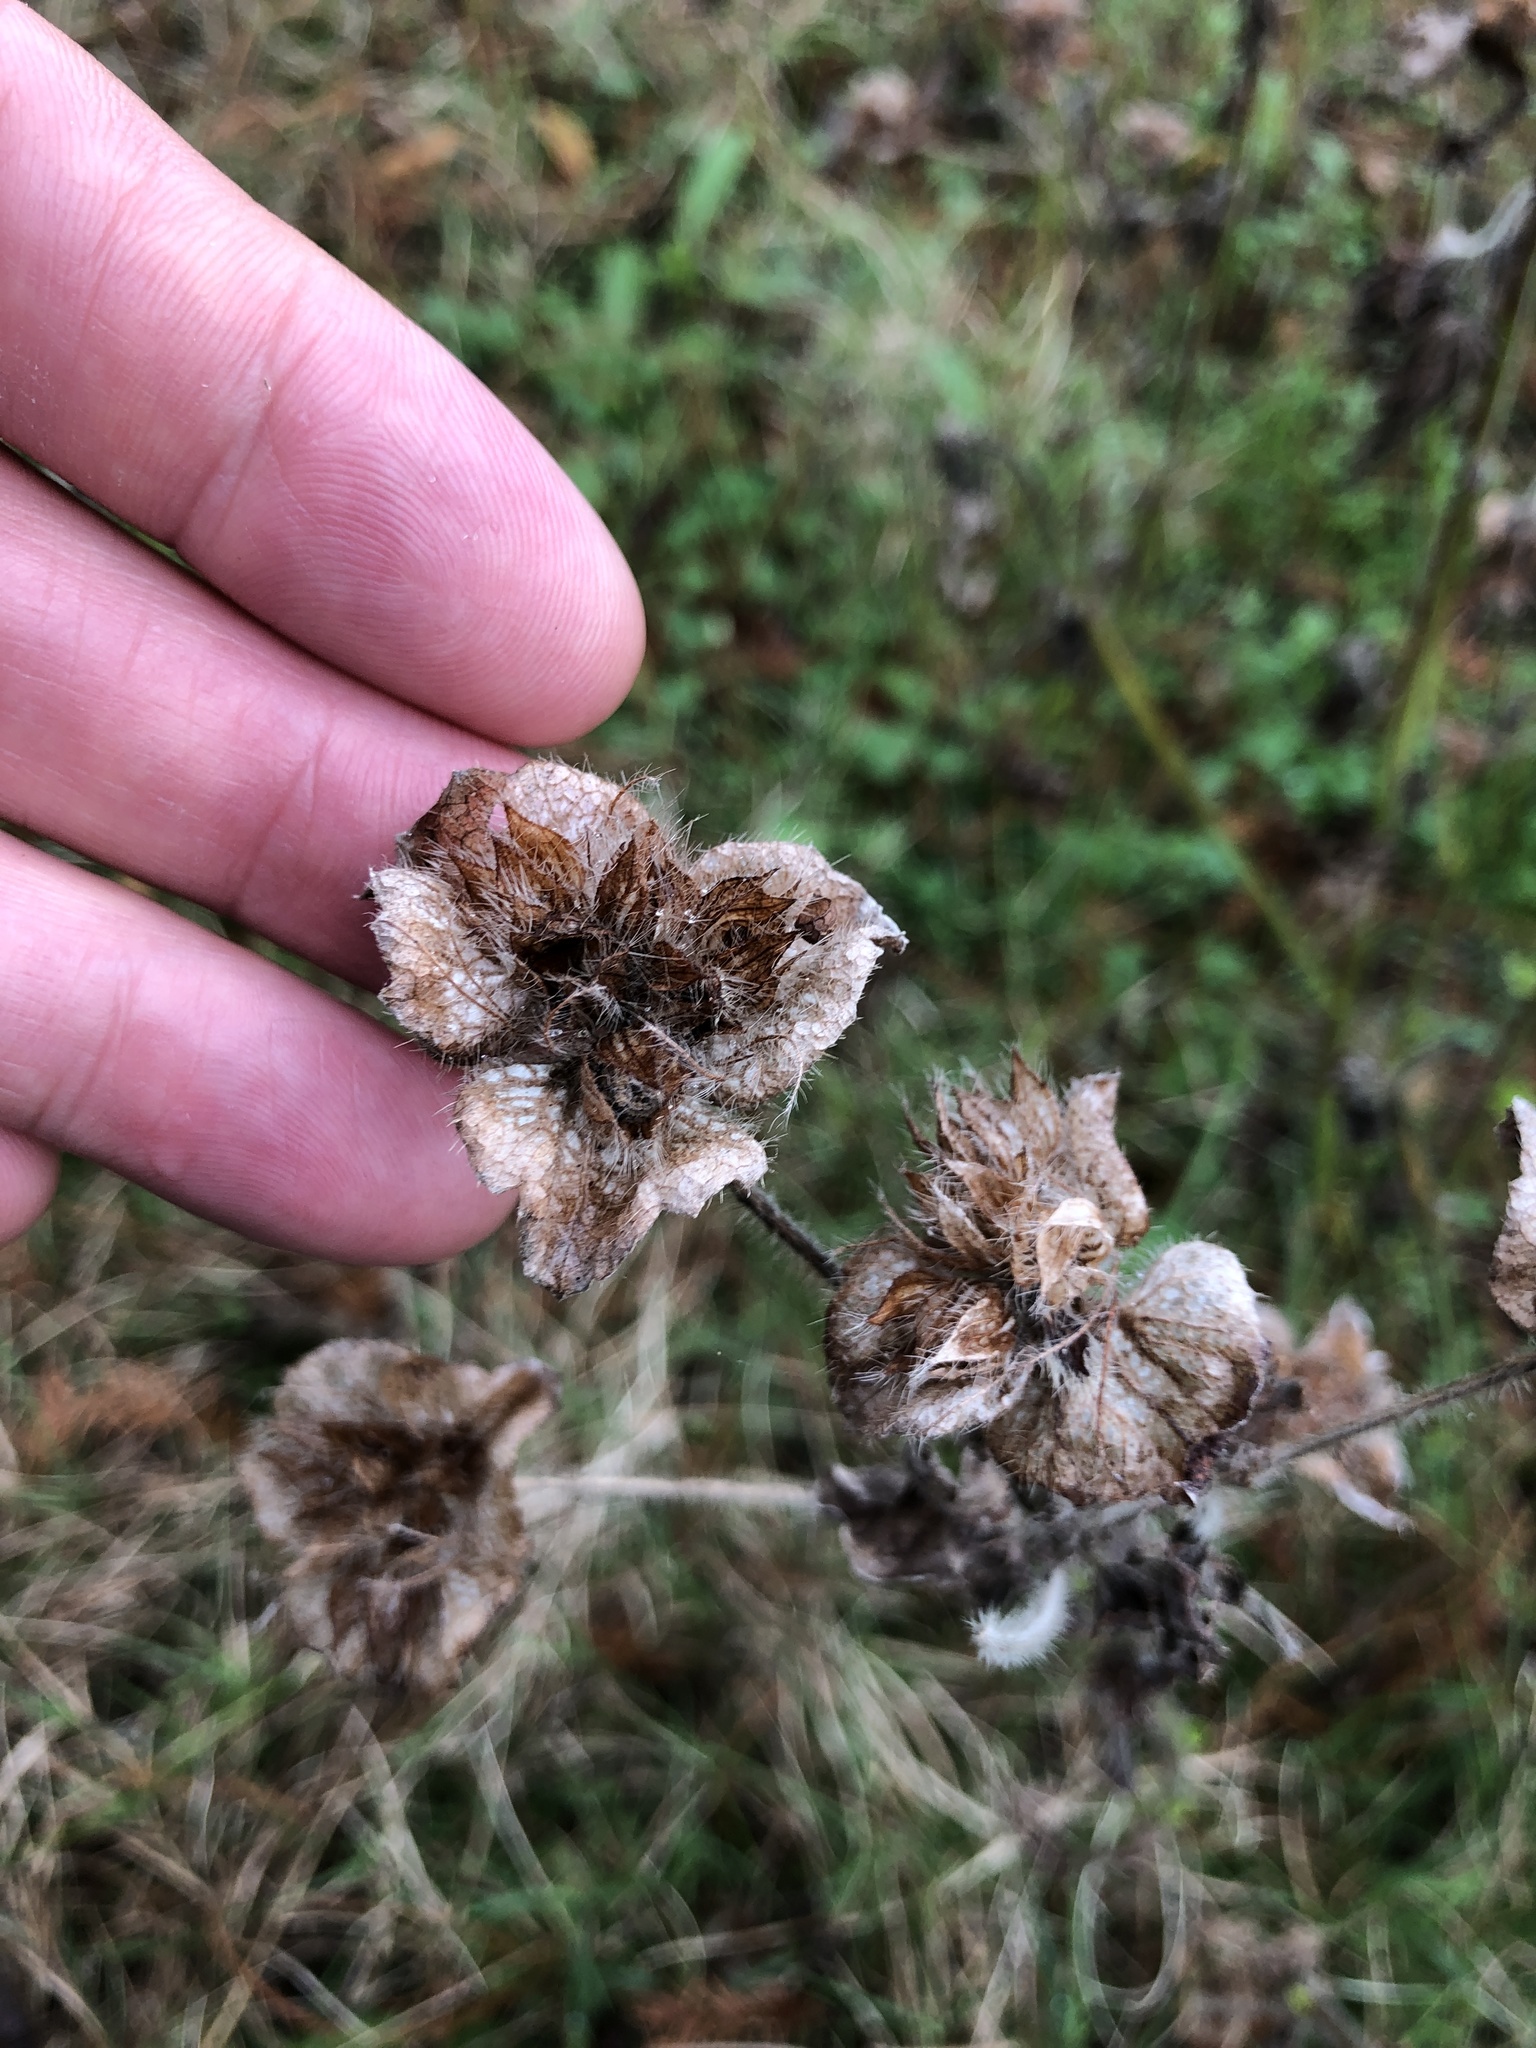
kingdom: Plantae
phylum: Tracheophyta
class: Magnoliopsida
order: Malvales
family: Malvaceae
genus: Malachra
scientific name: Malachra capitata
